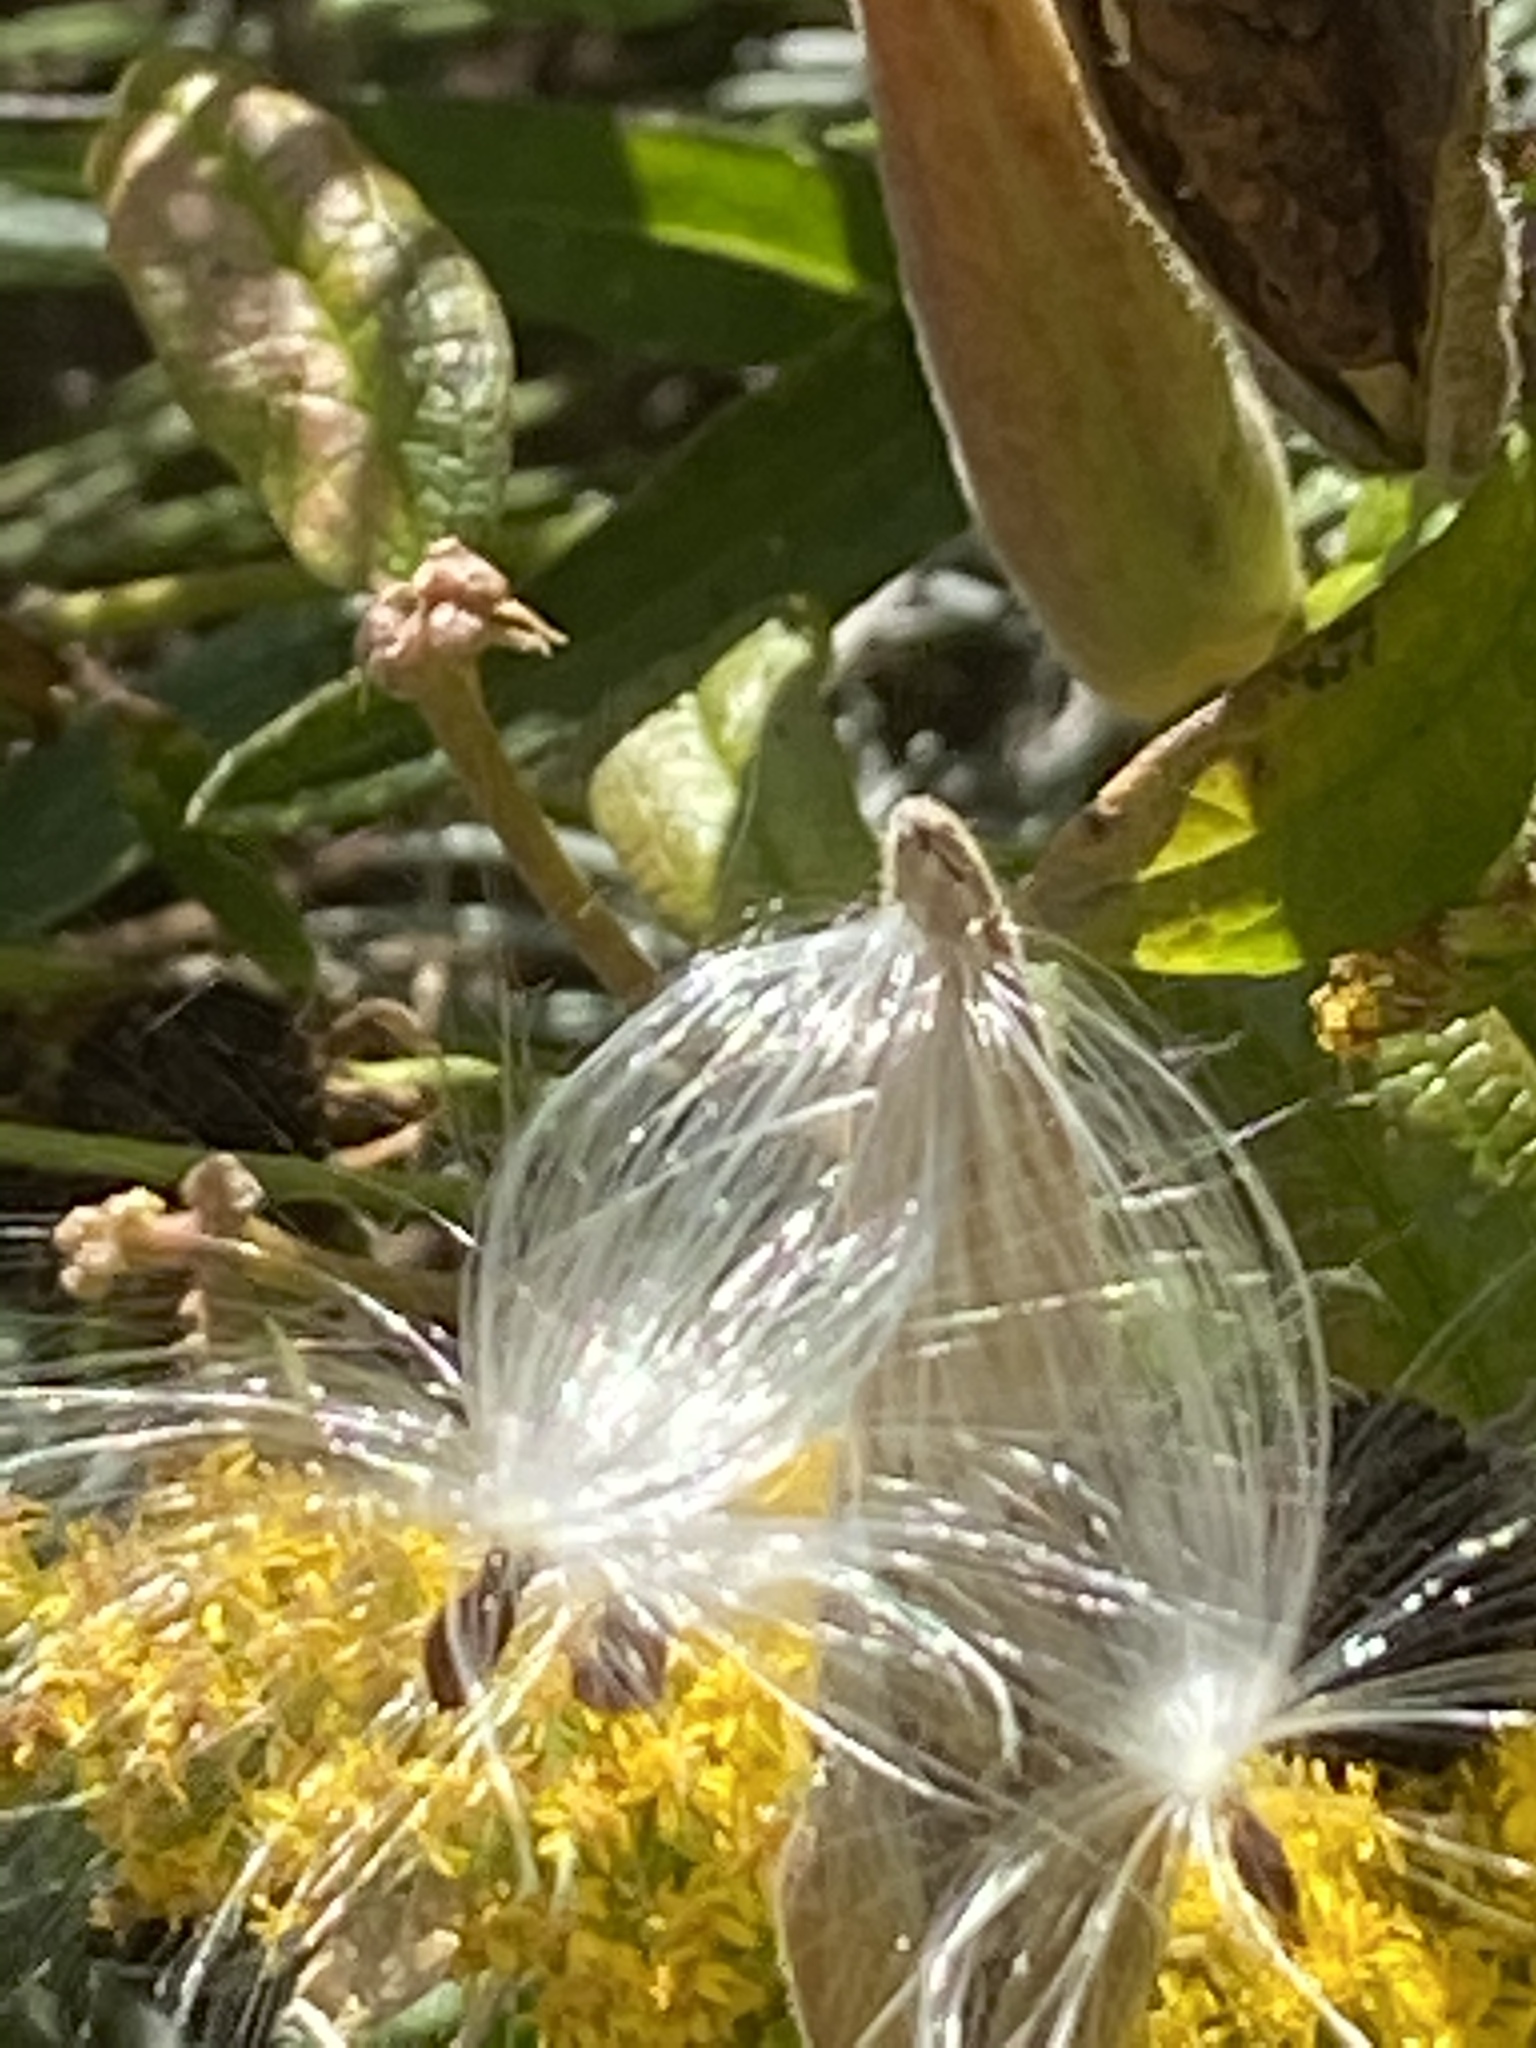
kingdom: Plantae
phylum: Tracheophyta
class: Magnoliopsida
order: Gentianales
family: Apocynaceae
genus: Asclepias
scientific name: Asclepias tuberosa
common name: Butterfly milkweed
